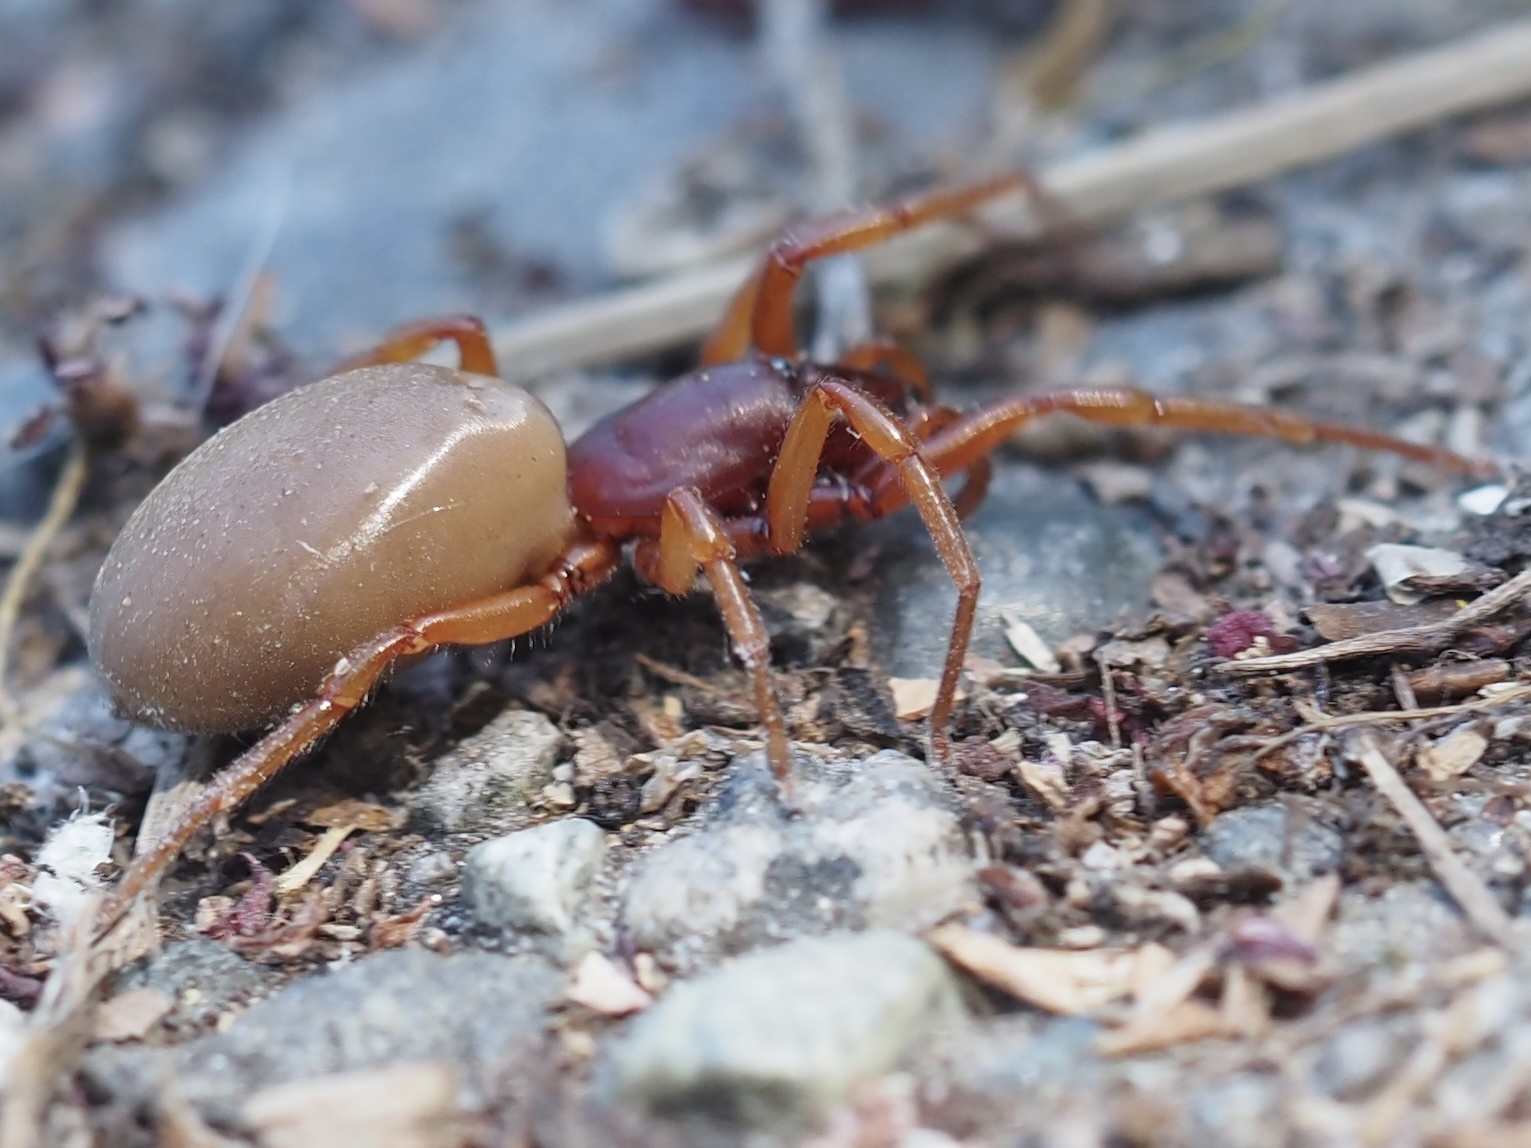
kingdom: Animalia
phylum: Arthropoda
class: Arachnida
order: Araneae
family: Dysderidae
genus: Dysdera
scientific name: Dysdera crocata
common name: Woodlouse spider
